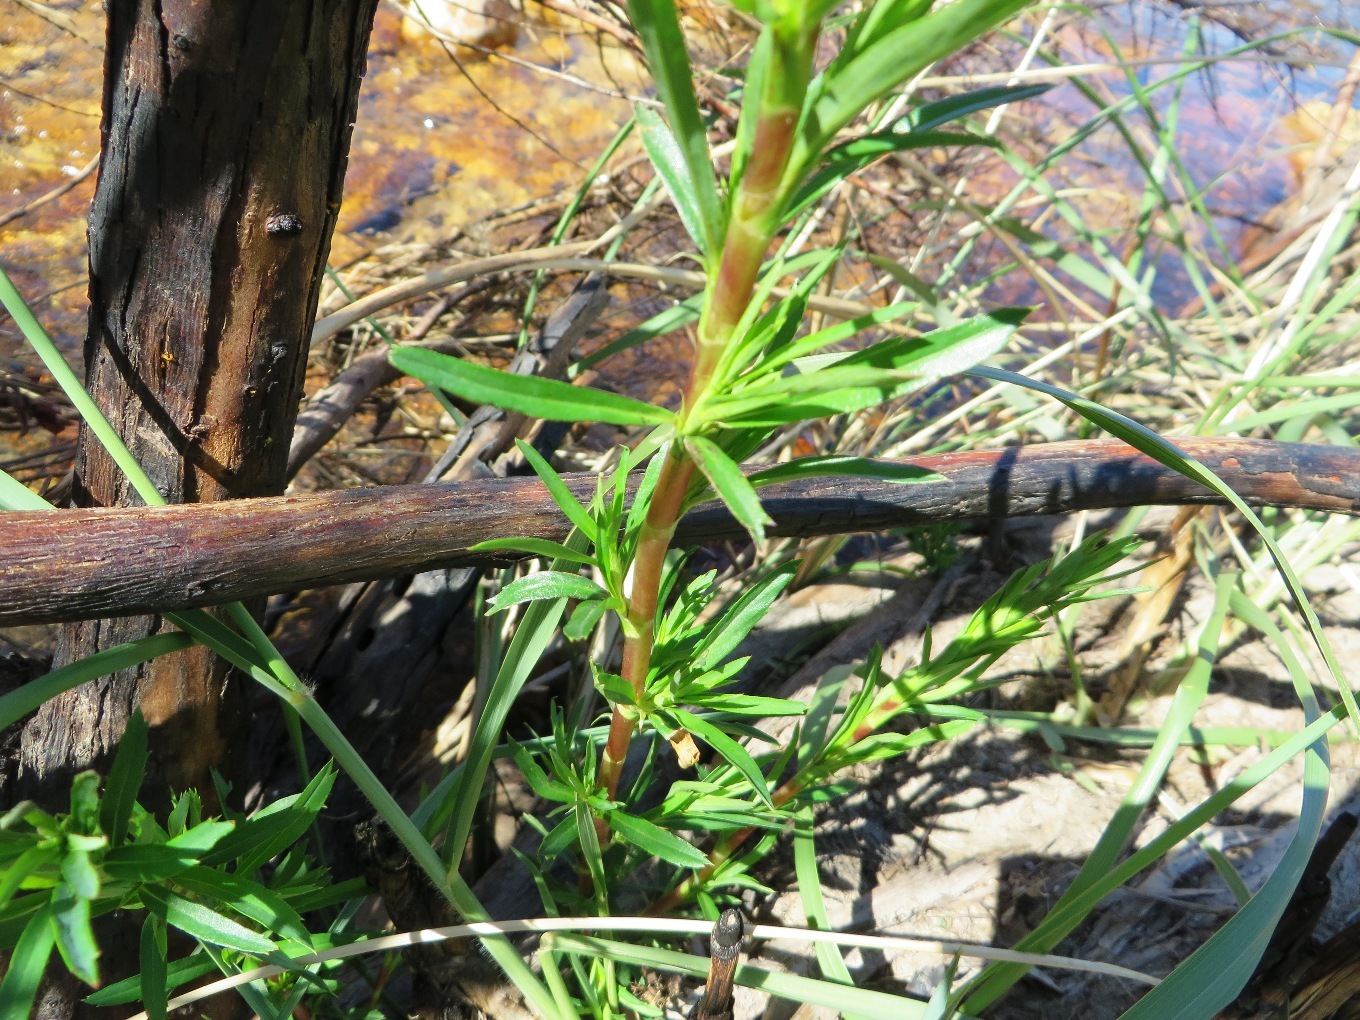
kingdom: Plantae
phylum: Tracheophyta
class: Magnoliopsida
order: Rosales
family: Rosaceae
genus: Cliffortia
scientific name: Cliffortia strobilifera
